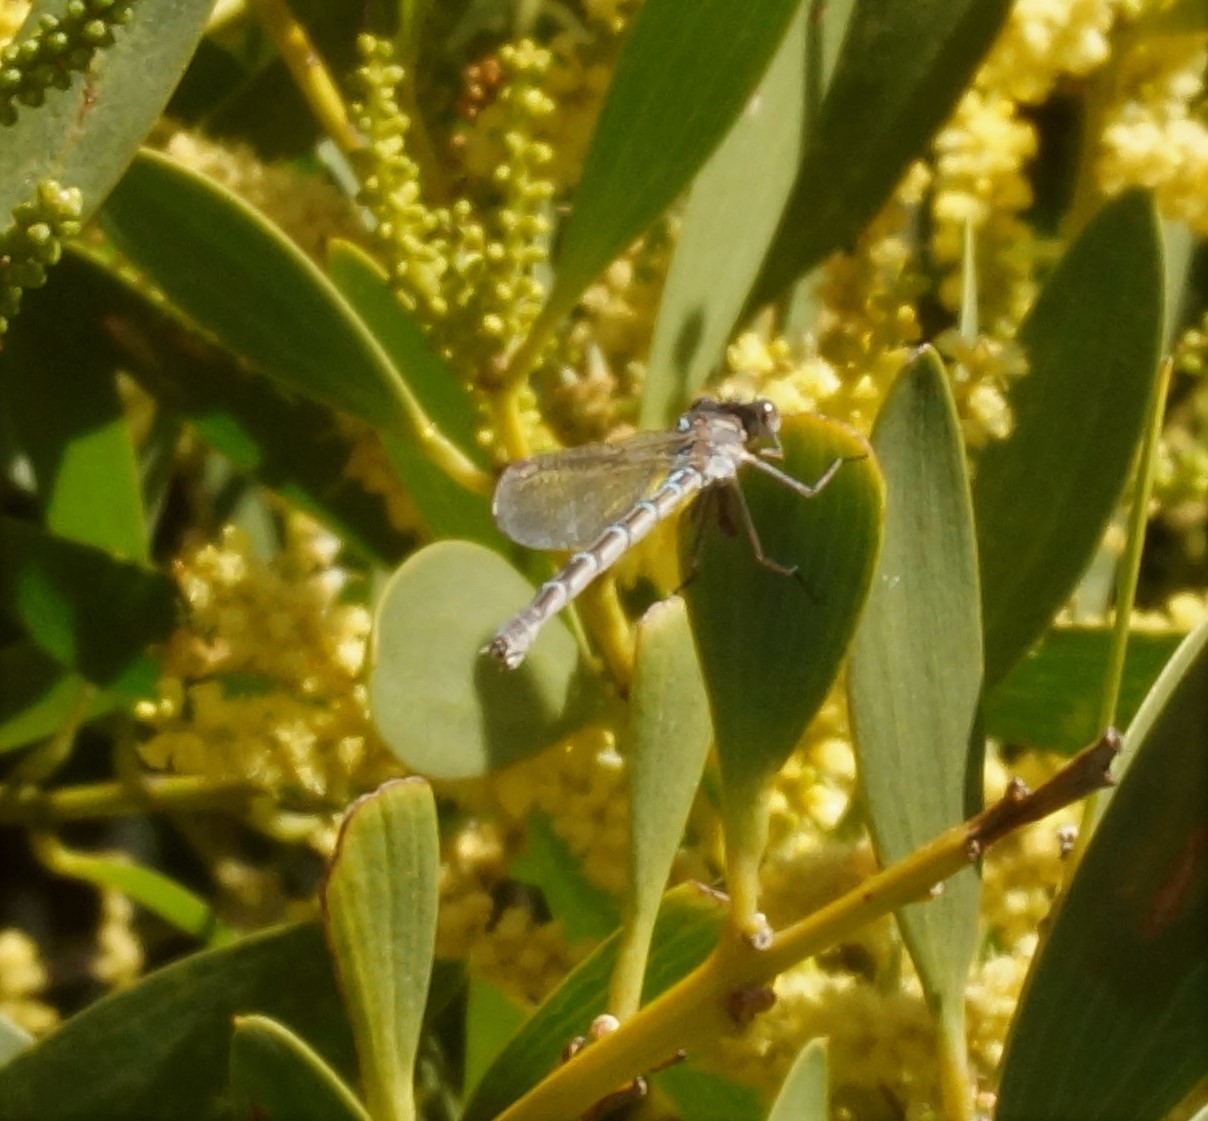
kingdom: Animalia
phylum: Arthropoda
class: Insecta
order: Odonata
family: Lestidae
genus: Austrolestes
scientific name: Austrolestes leda
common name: Wandering ringtail
